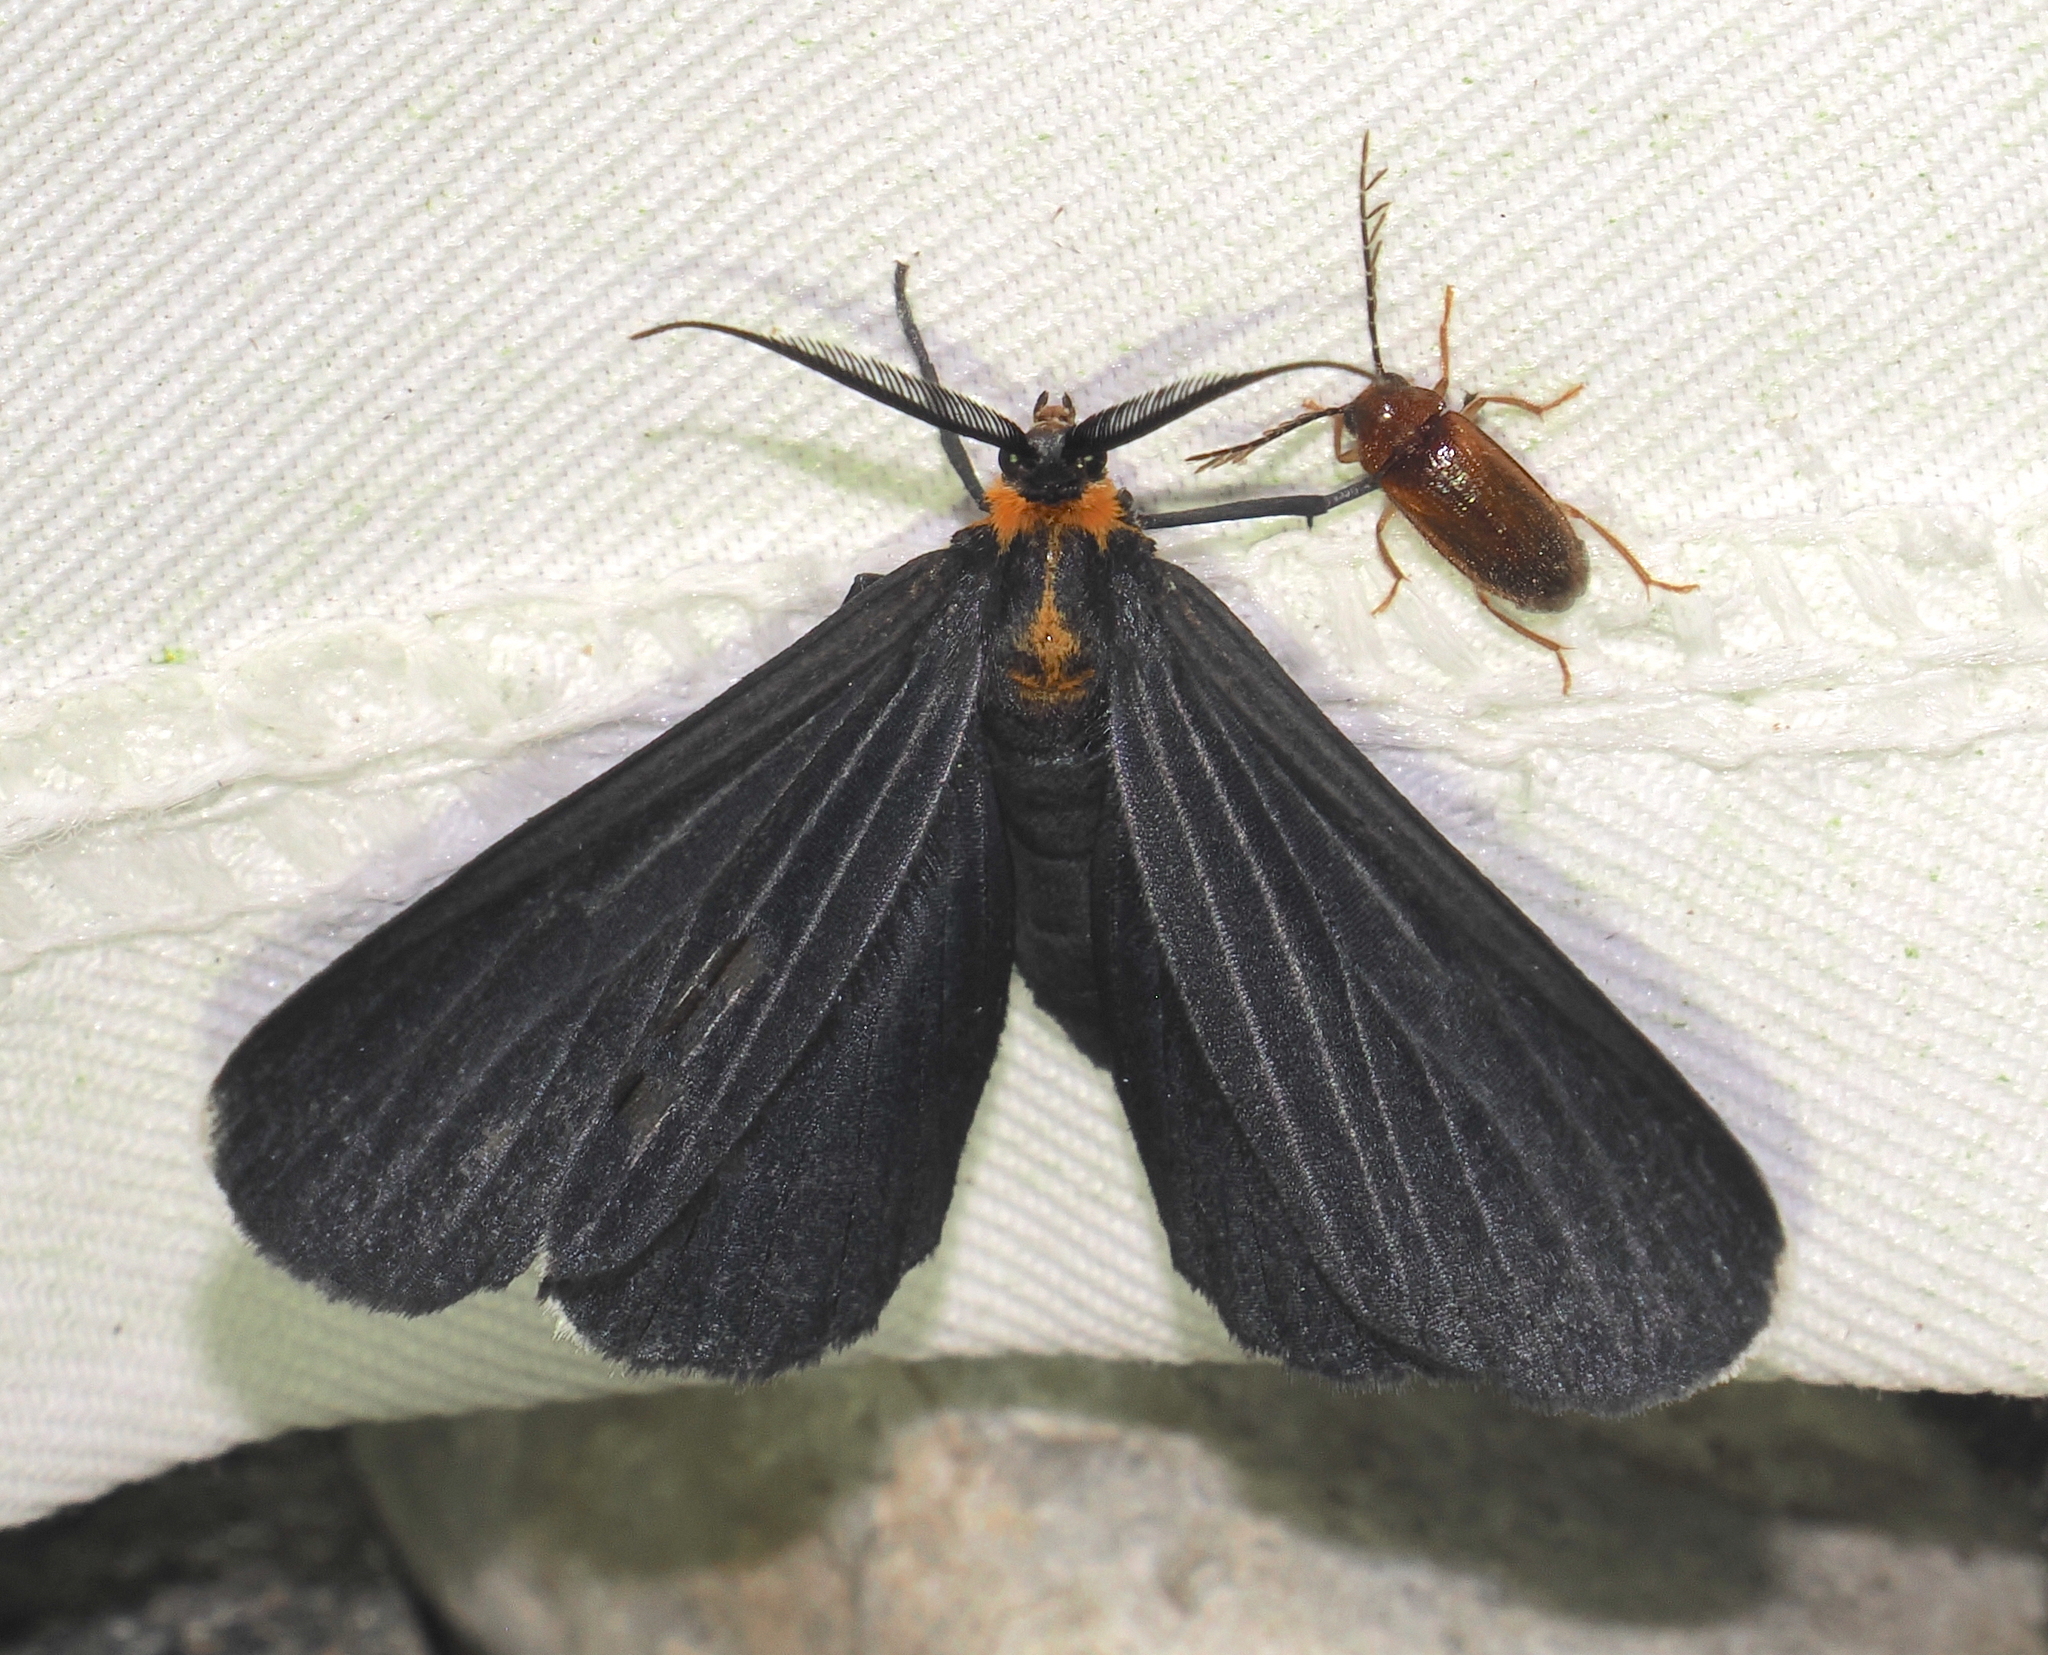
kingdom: Animalia
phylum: Arthropoda
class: Insecta
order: Lepidoptera
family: Geometridae
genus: Melanchroia
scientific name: Melanchroia chephise
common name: White-tipped black
